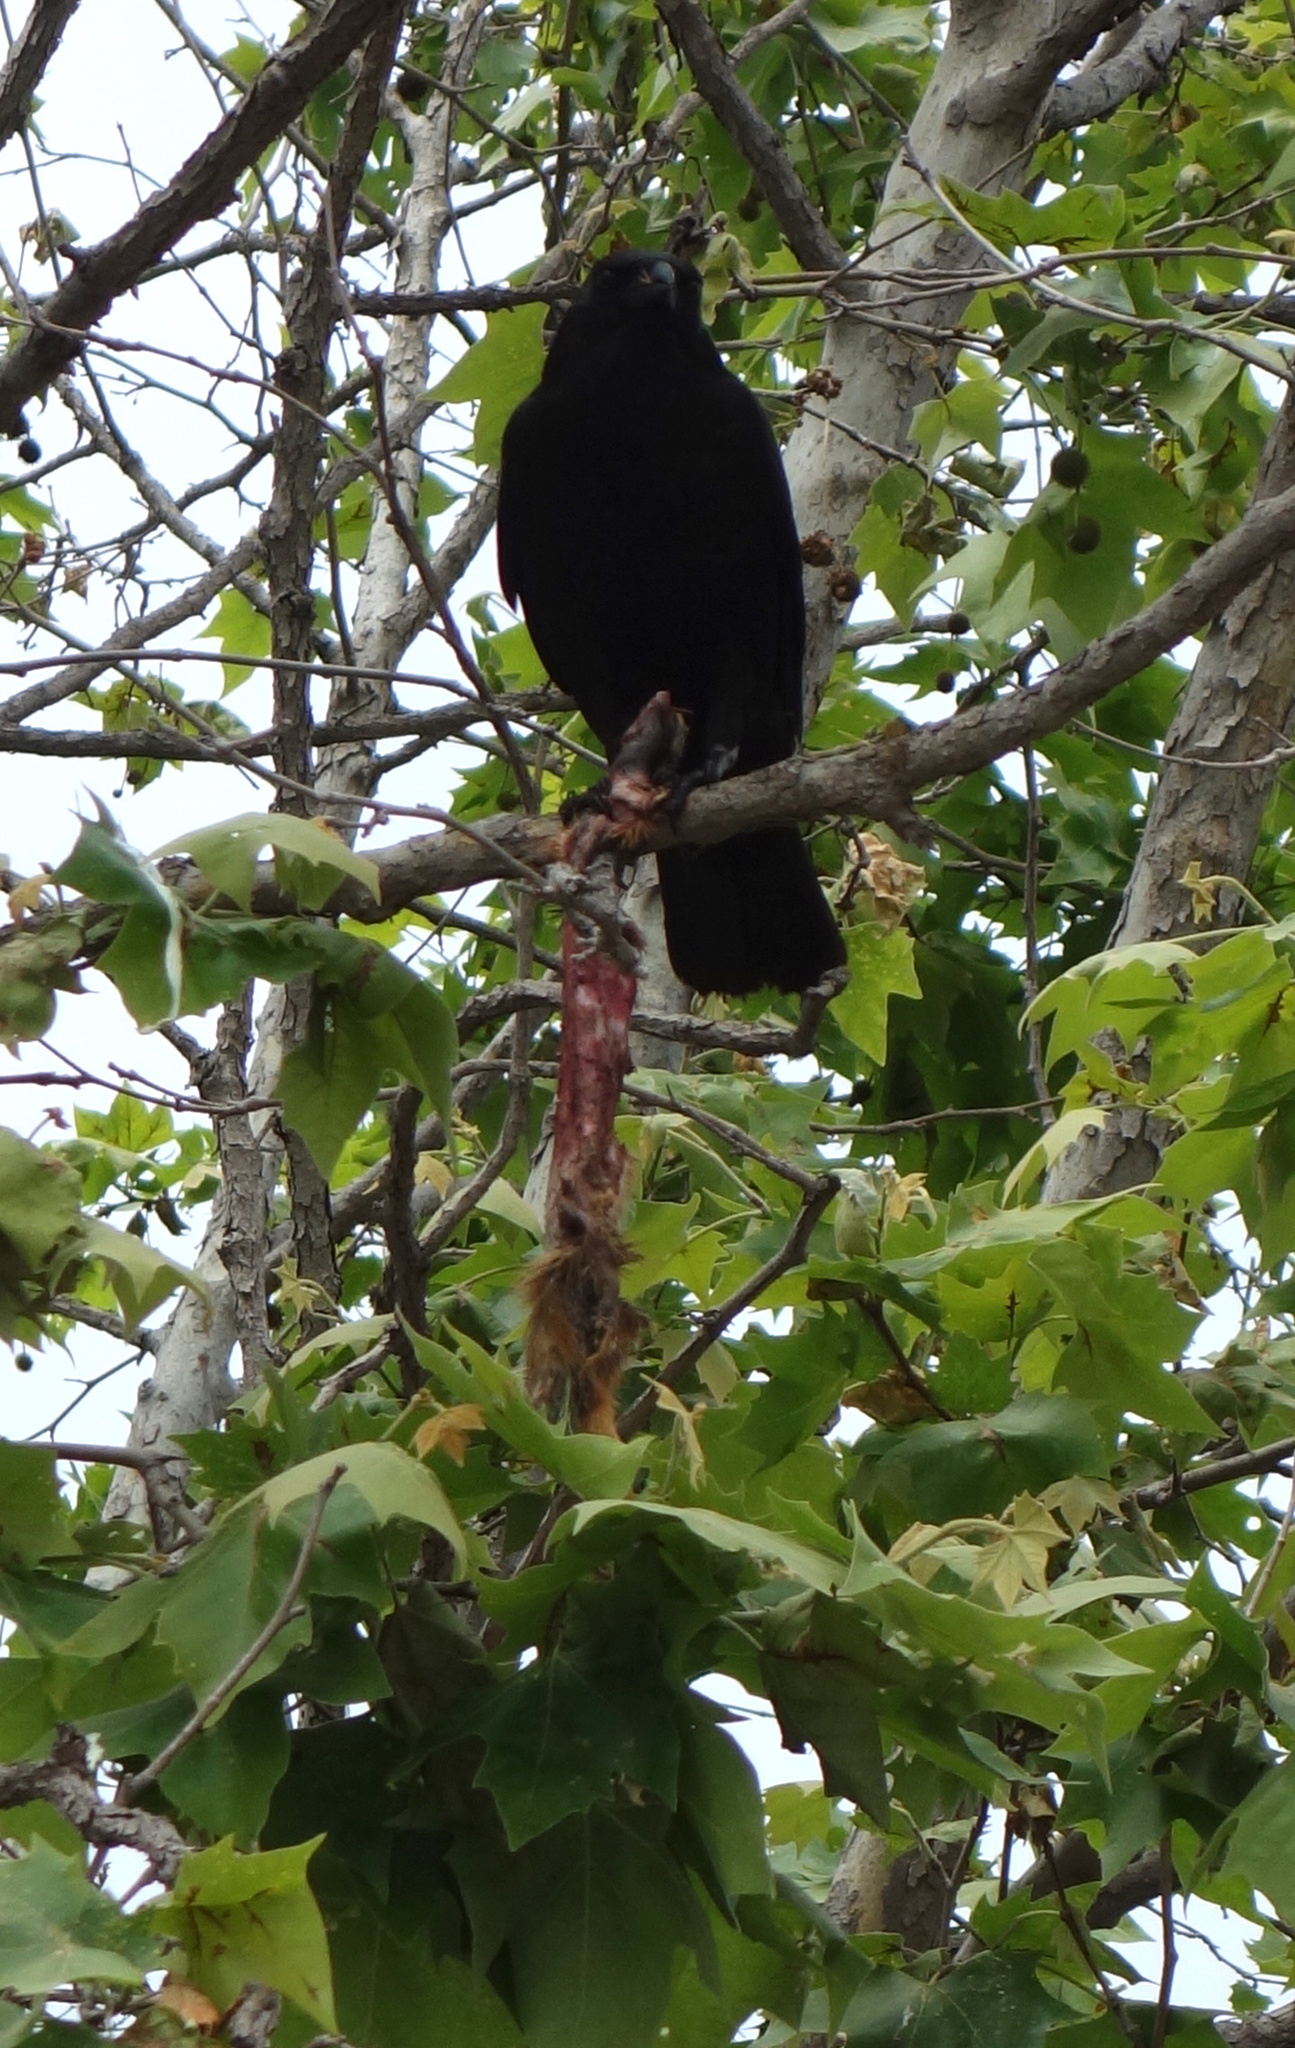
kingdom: Animalia
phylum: Chordata
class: Aves
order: Passeriformes
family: Corvidae
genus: Corvus
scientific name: Corvus brachyrhynchos
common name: American crow
